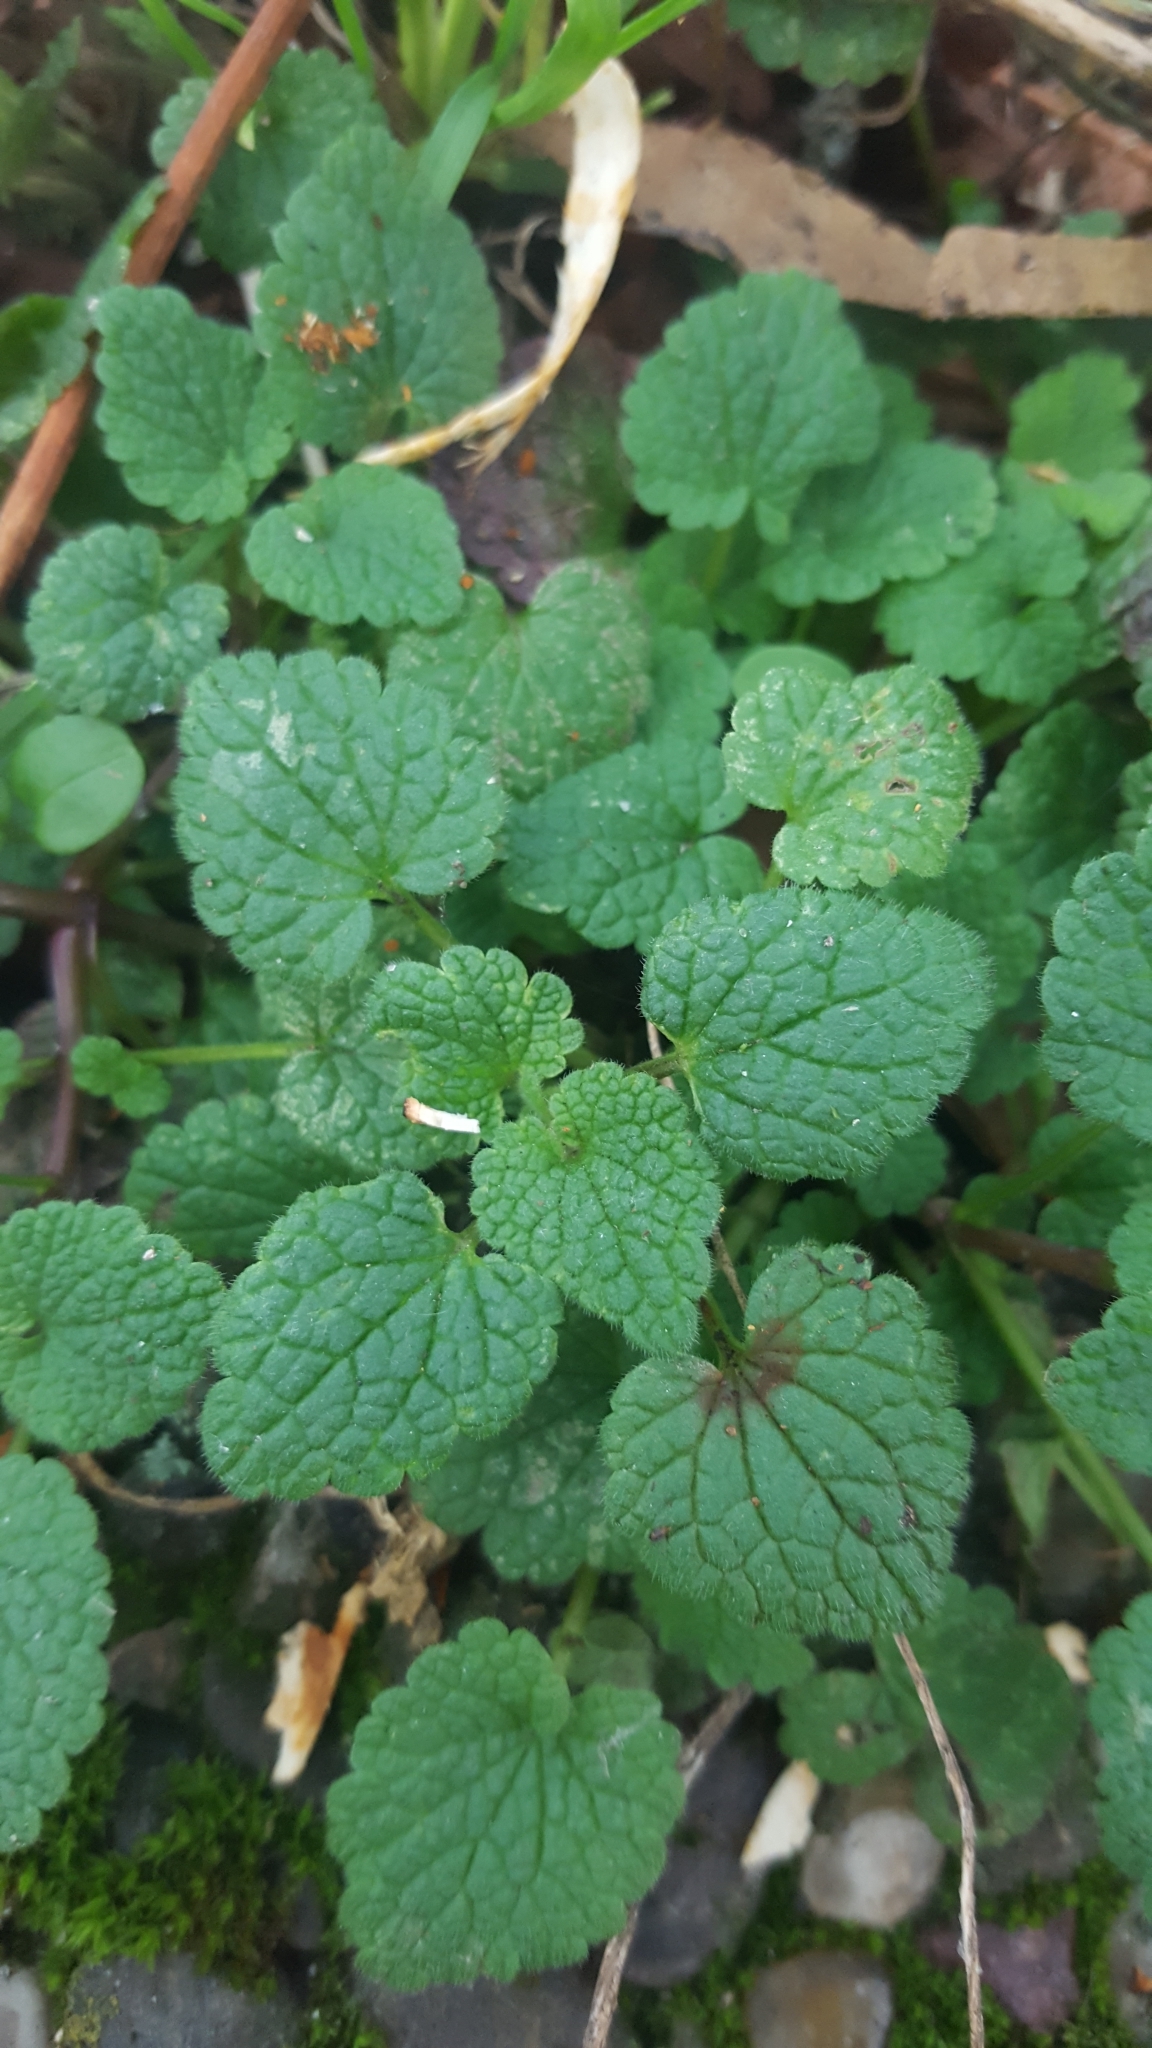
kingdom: Plantae
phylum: Tracheophyta
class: Magnoliopsida
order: Lamiales
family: Lamiaceae
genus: Lamium
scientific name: Lamium purpureum
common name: Red dead-nettle
